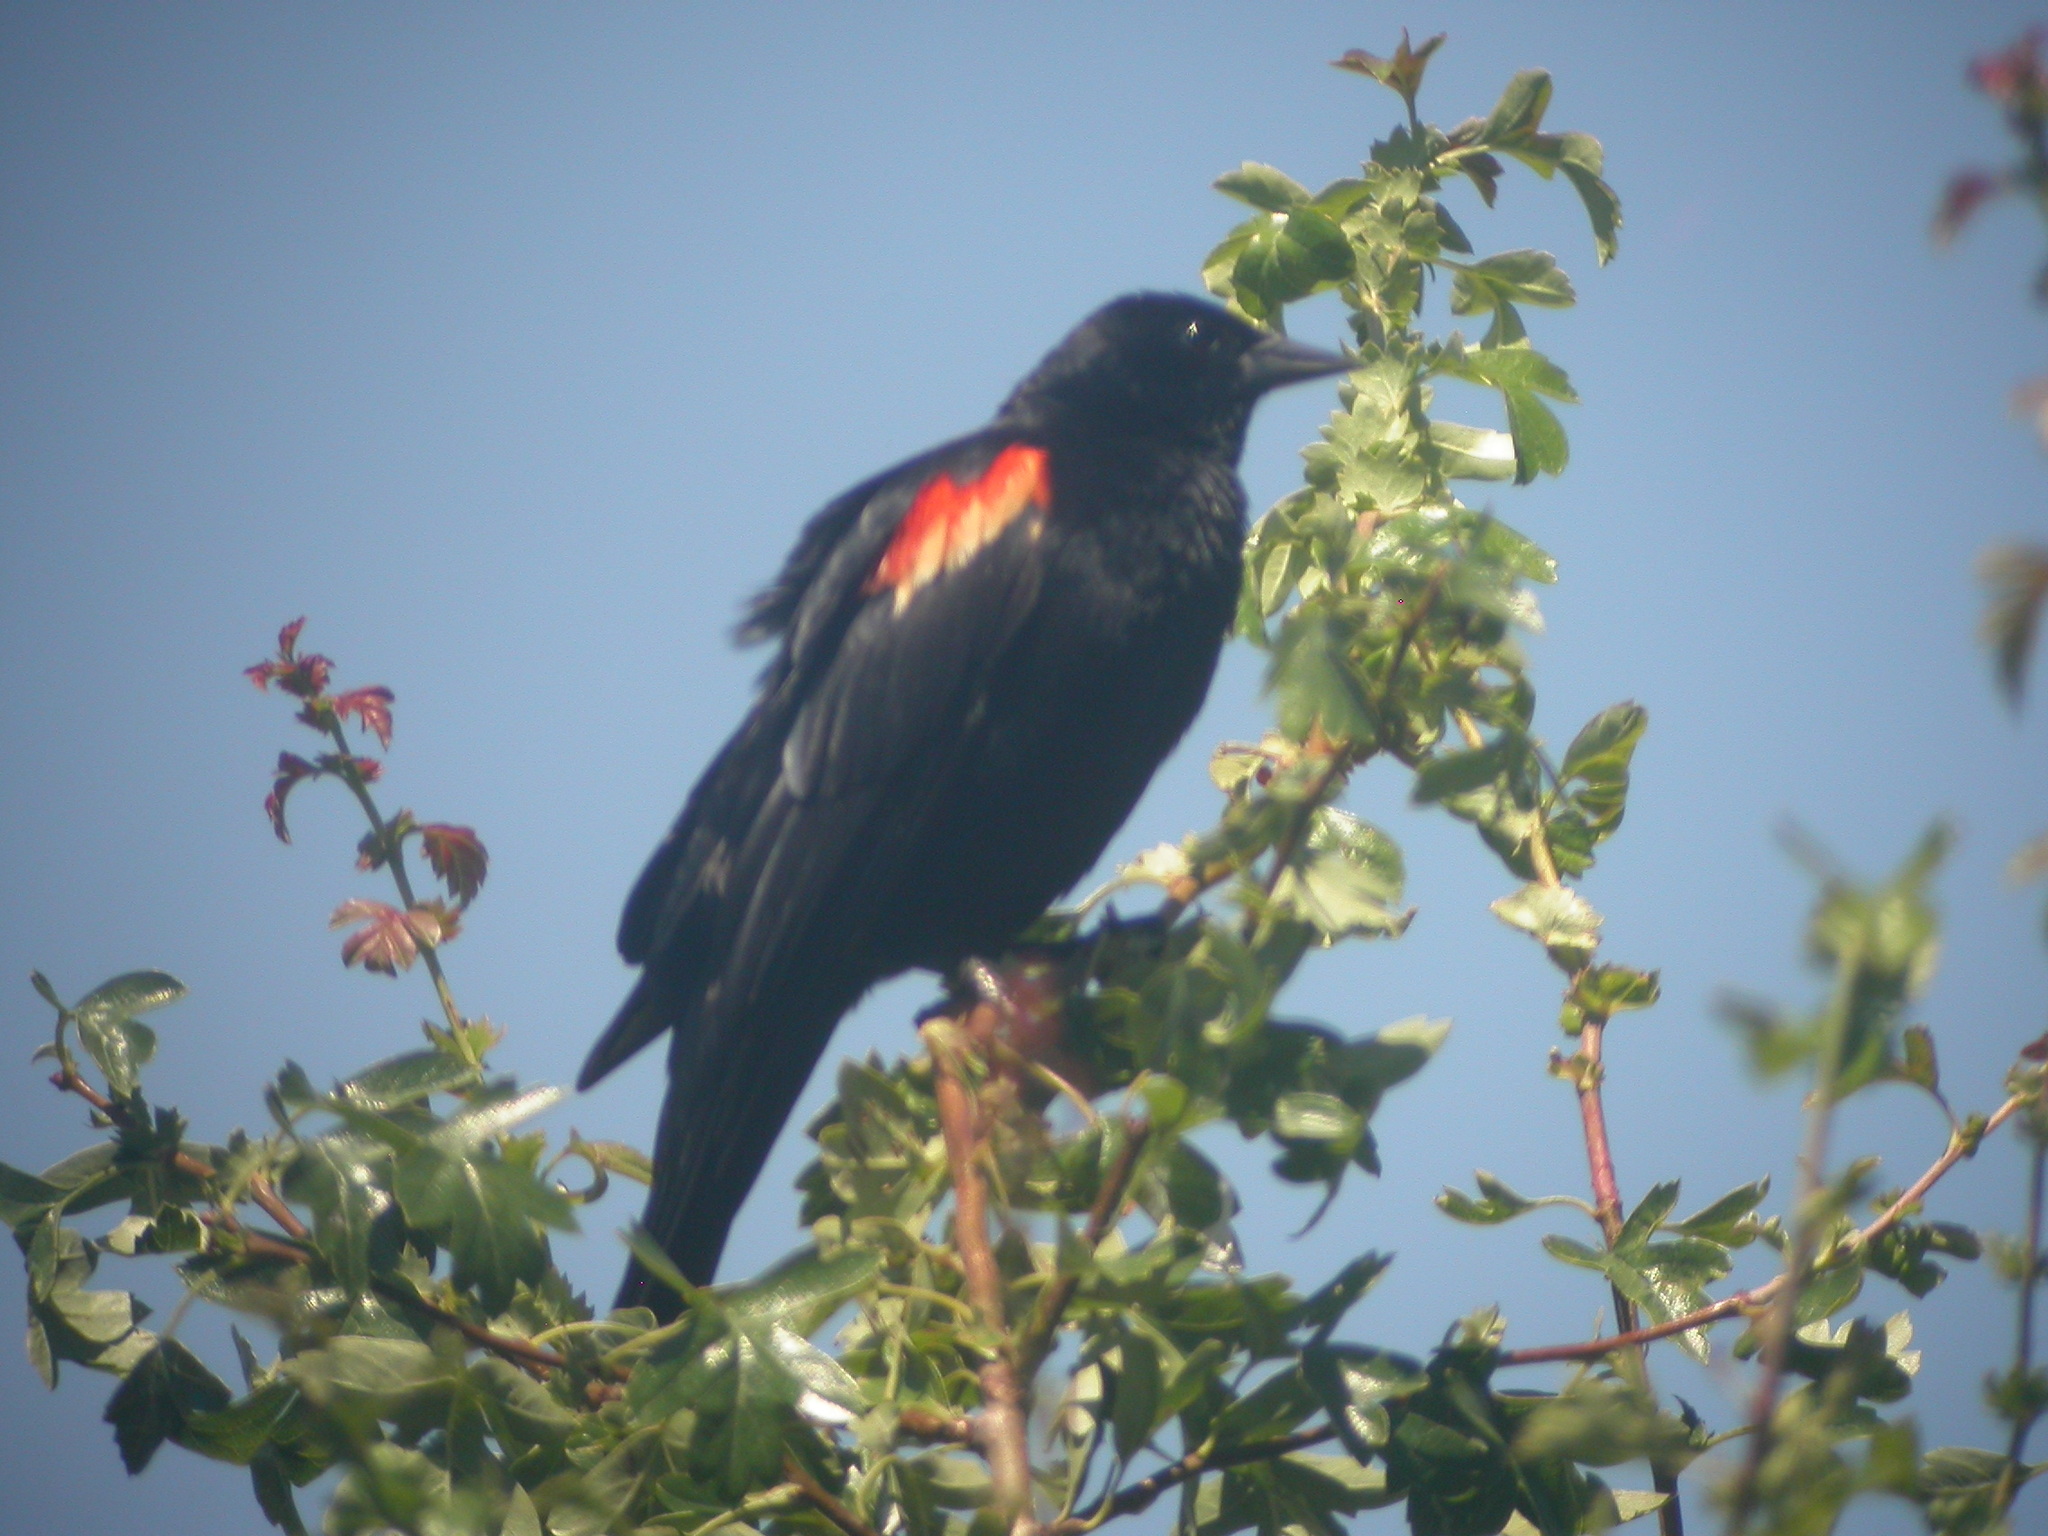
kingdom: Animalia
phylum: Chordata
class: Aves
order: Passeriformes
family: Icteridae
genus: Agelaius
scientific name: Agelaius phoeniceus
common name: Red-winged blackbird
